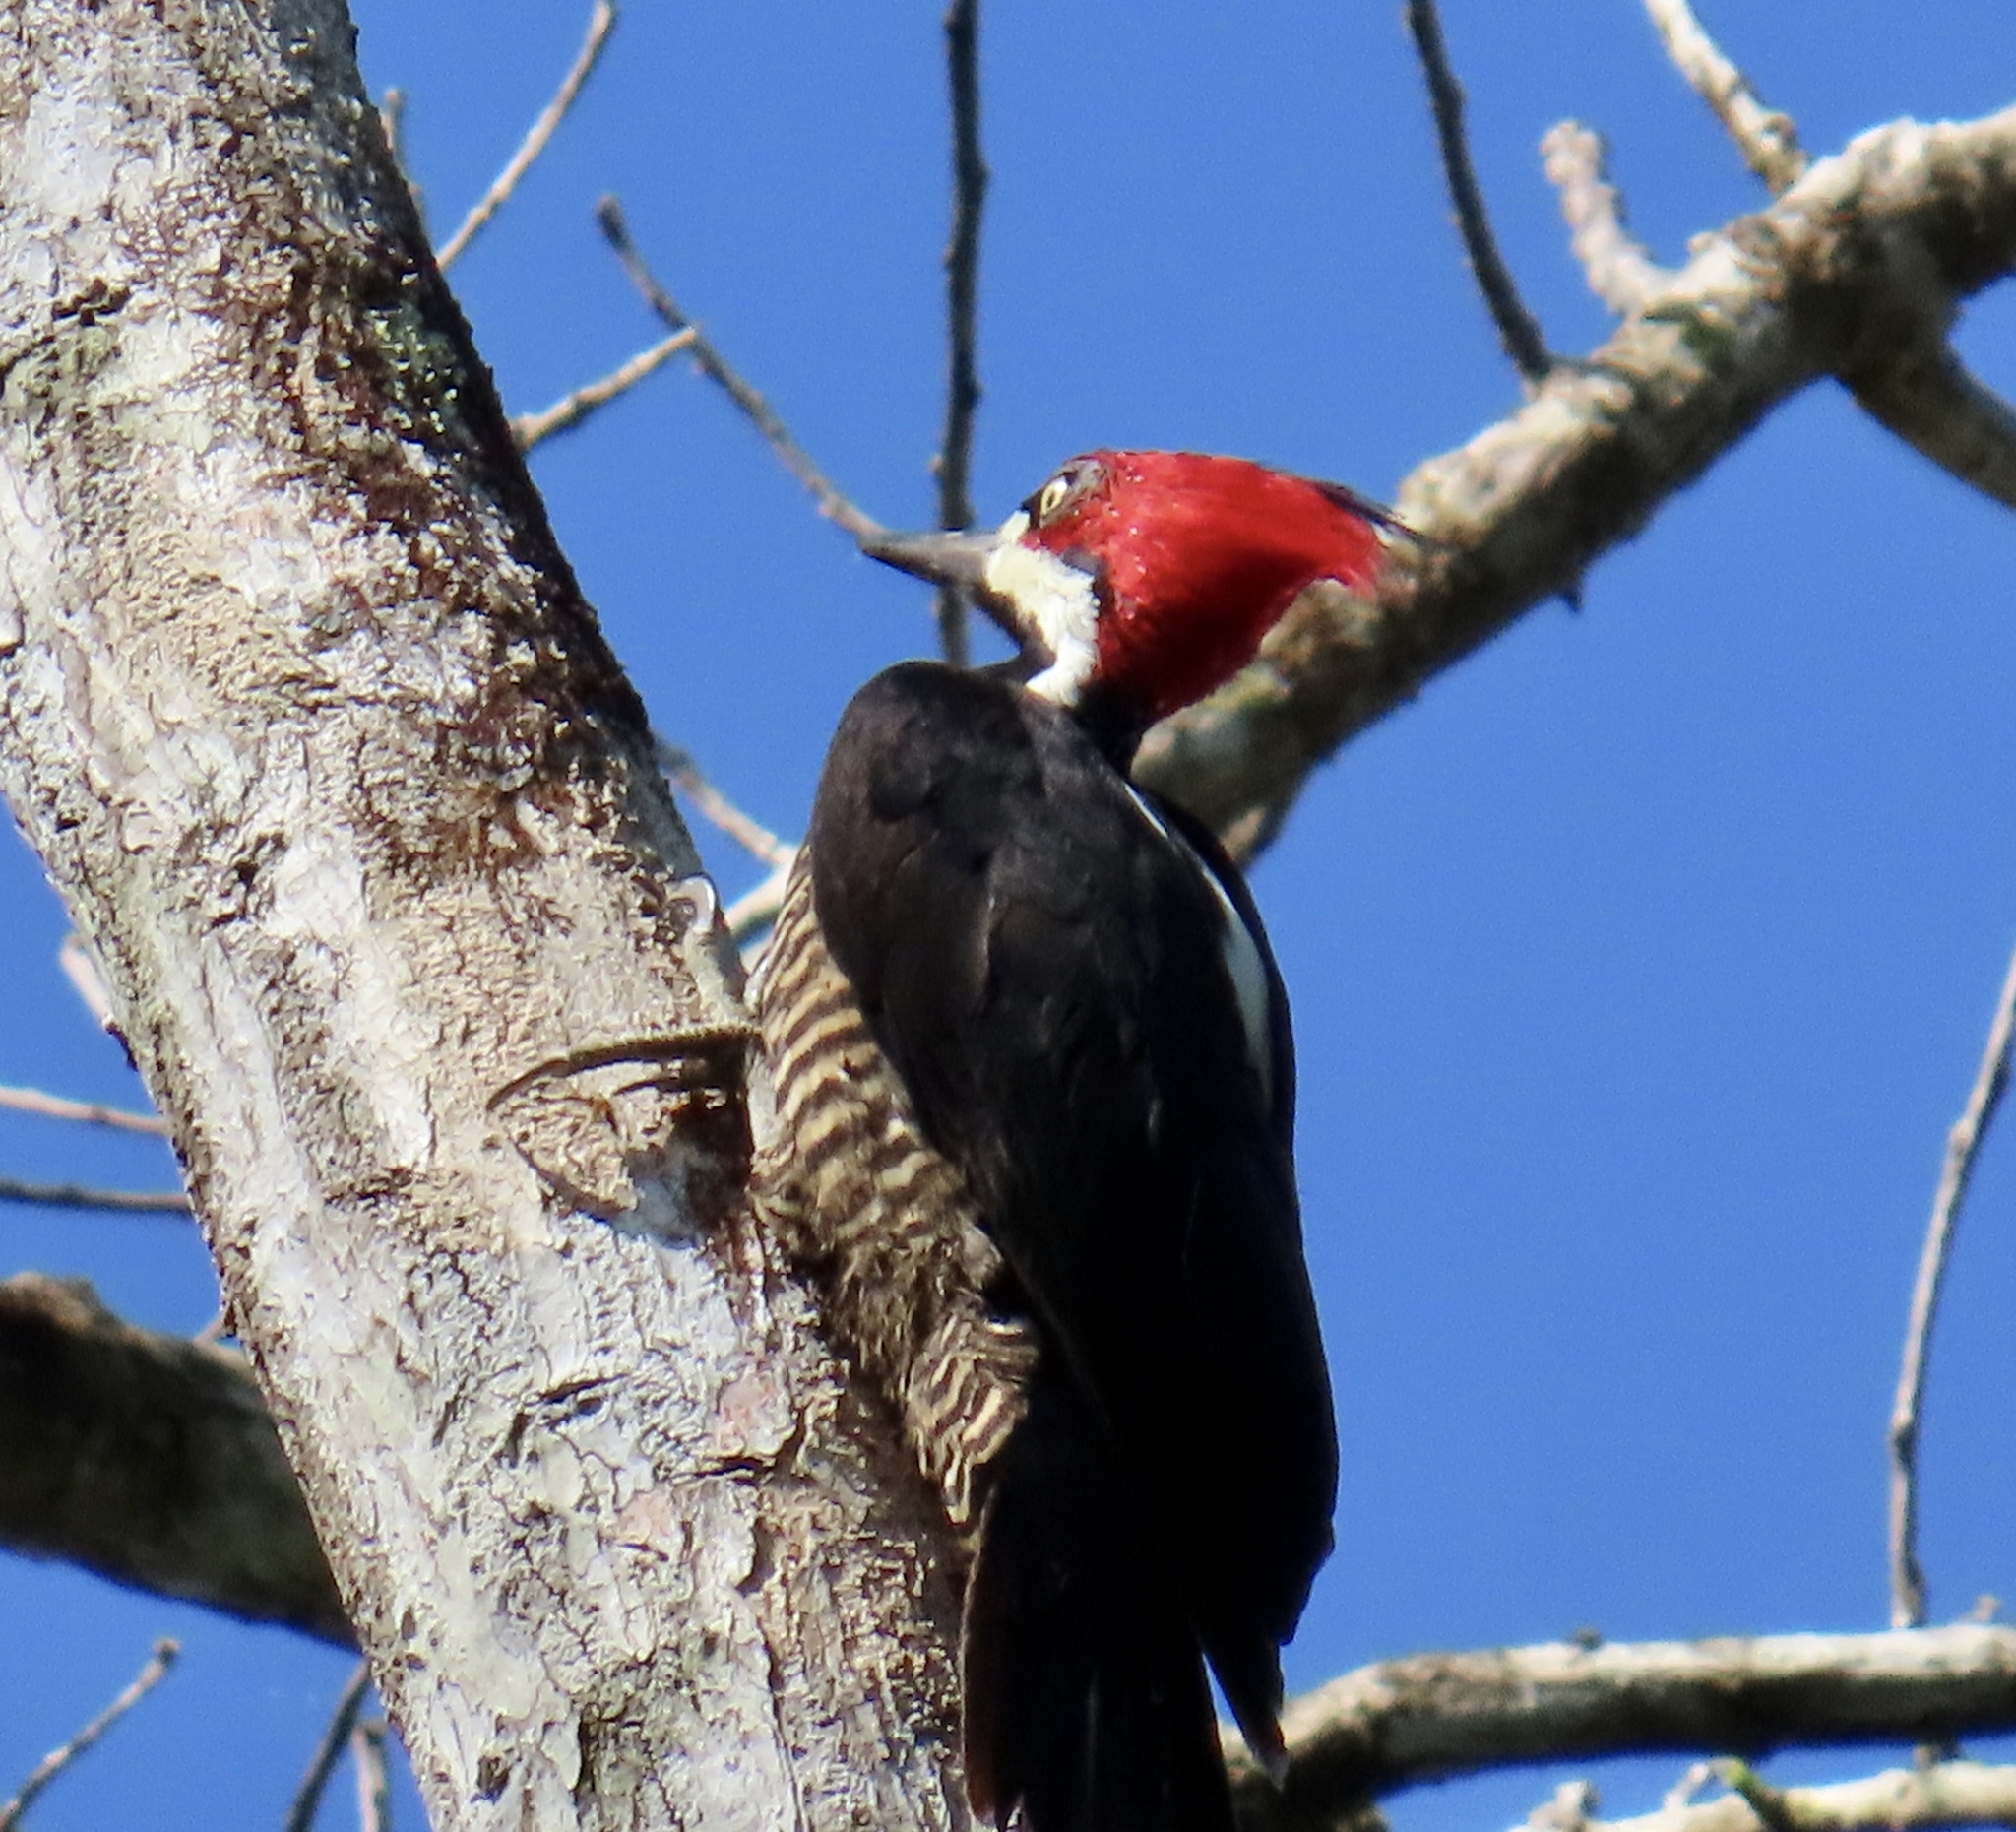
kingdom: Animalia
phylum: Chordata
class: Aves
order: Piciformes
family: Picidae
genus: Campephilus
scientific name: Campephilus melanoleucos
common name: Crimson-crested woodpecker
